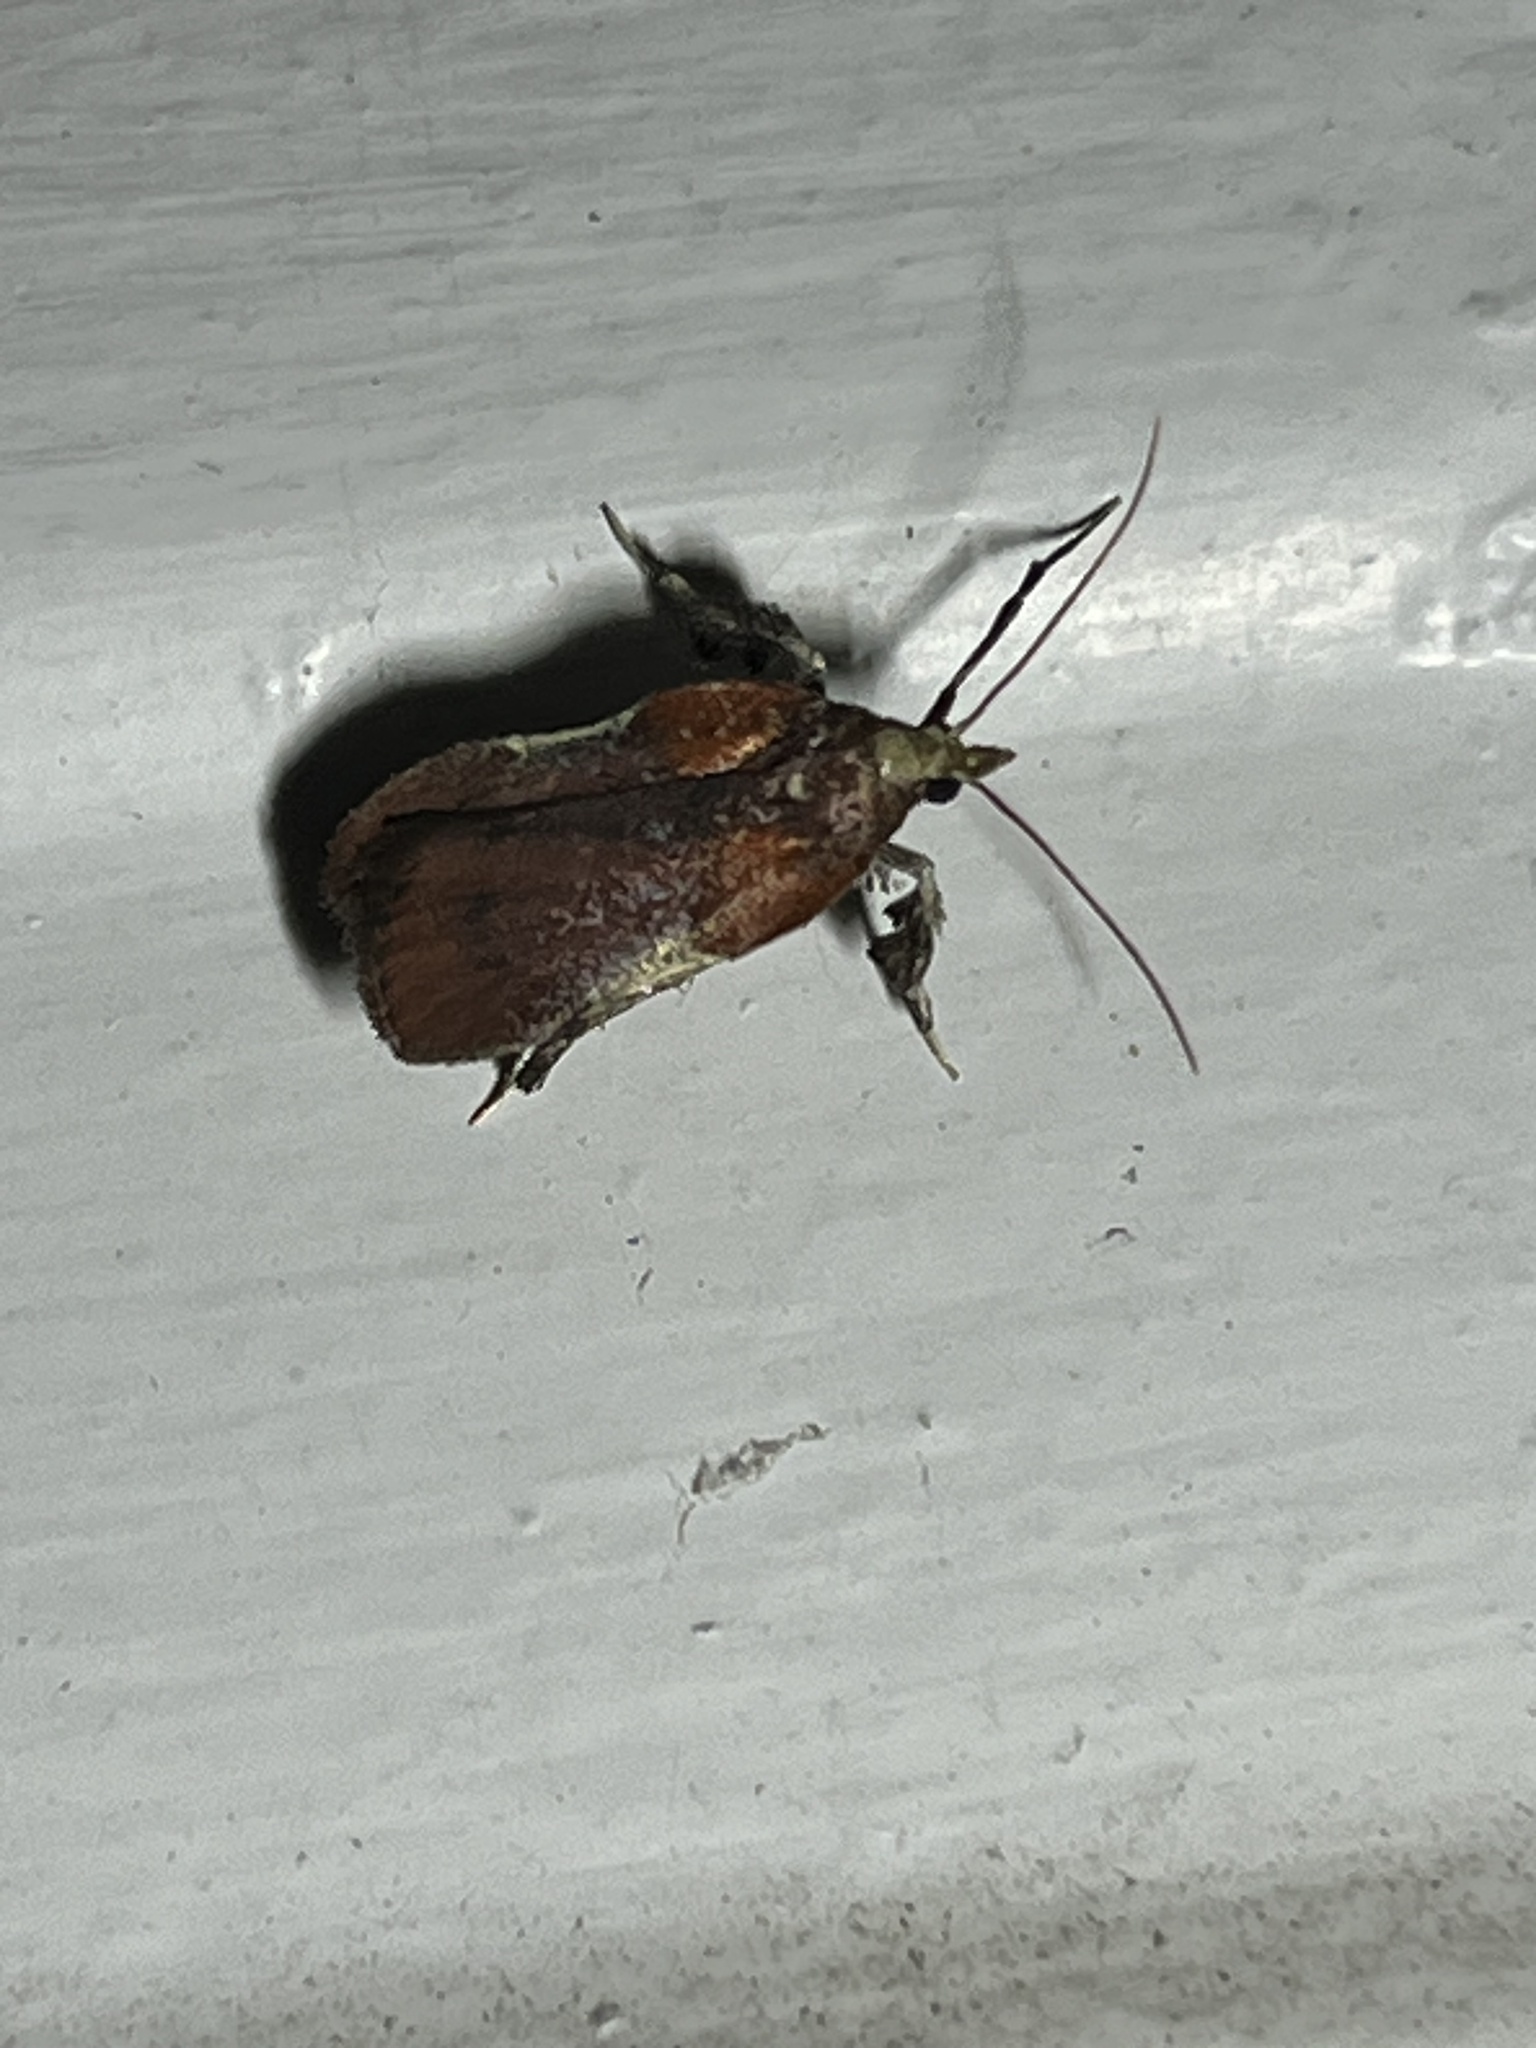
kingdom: Animalia
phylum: Arthropoda
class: Insecta
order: Lepidoptera
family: Pyralidae
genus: Galasa
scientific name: Galasa nigrinodis
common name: Boxwood leaftier moth
